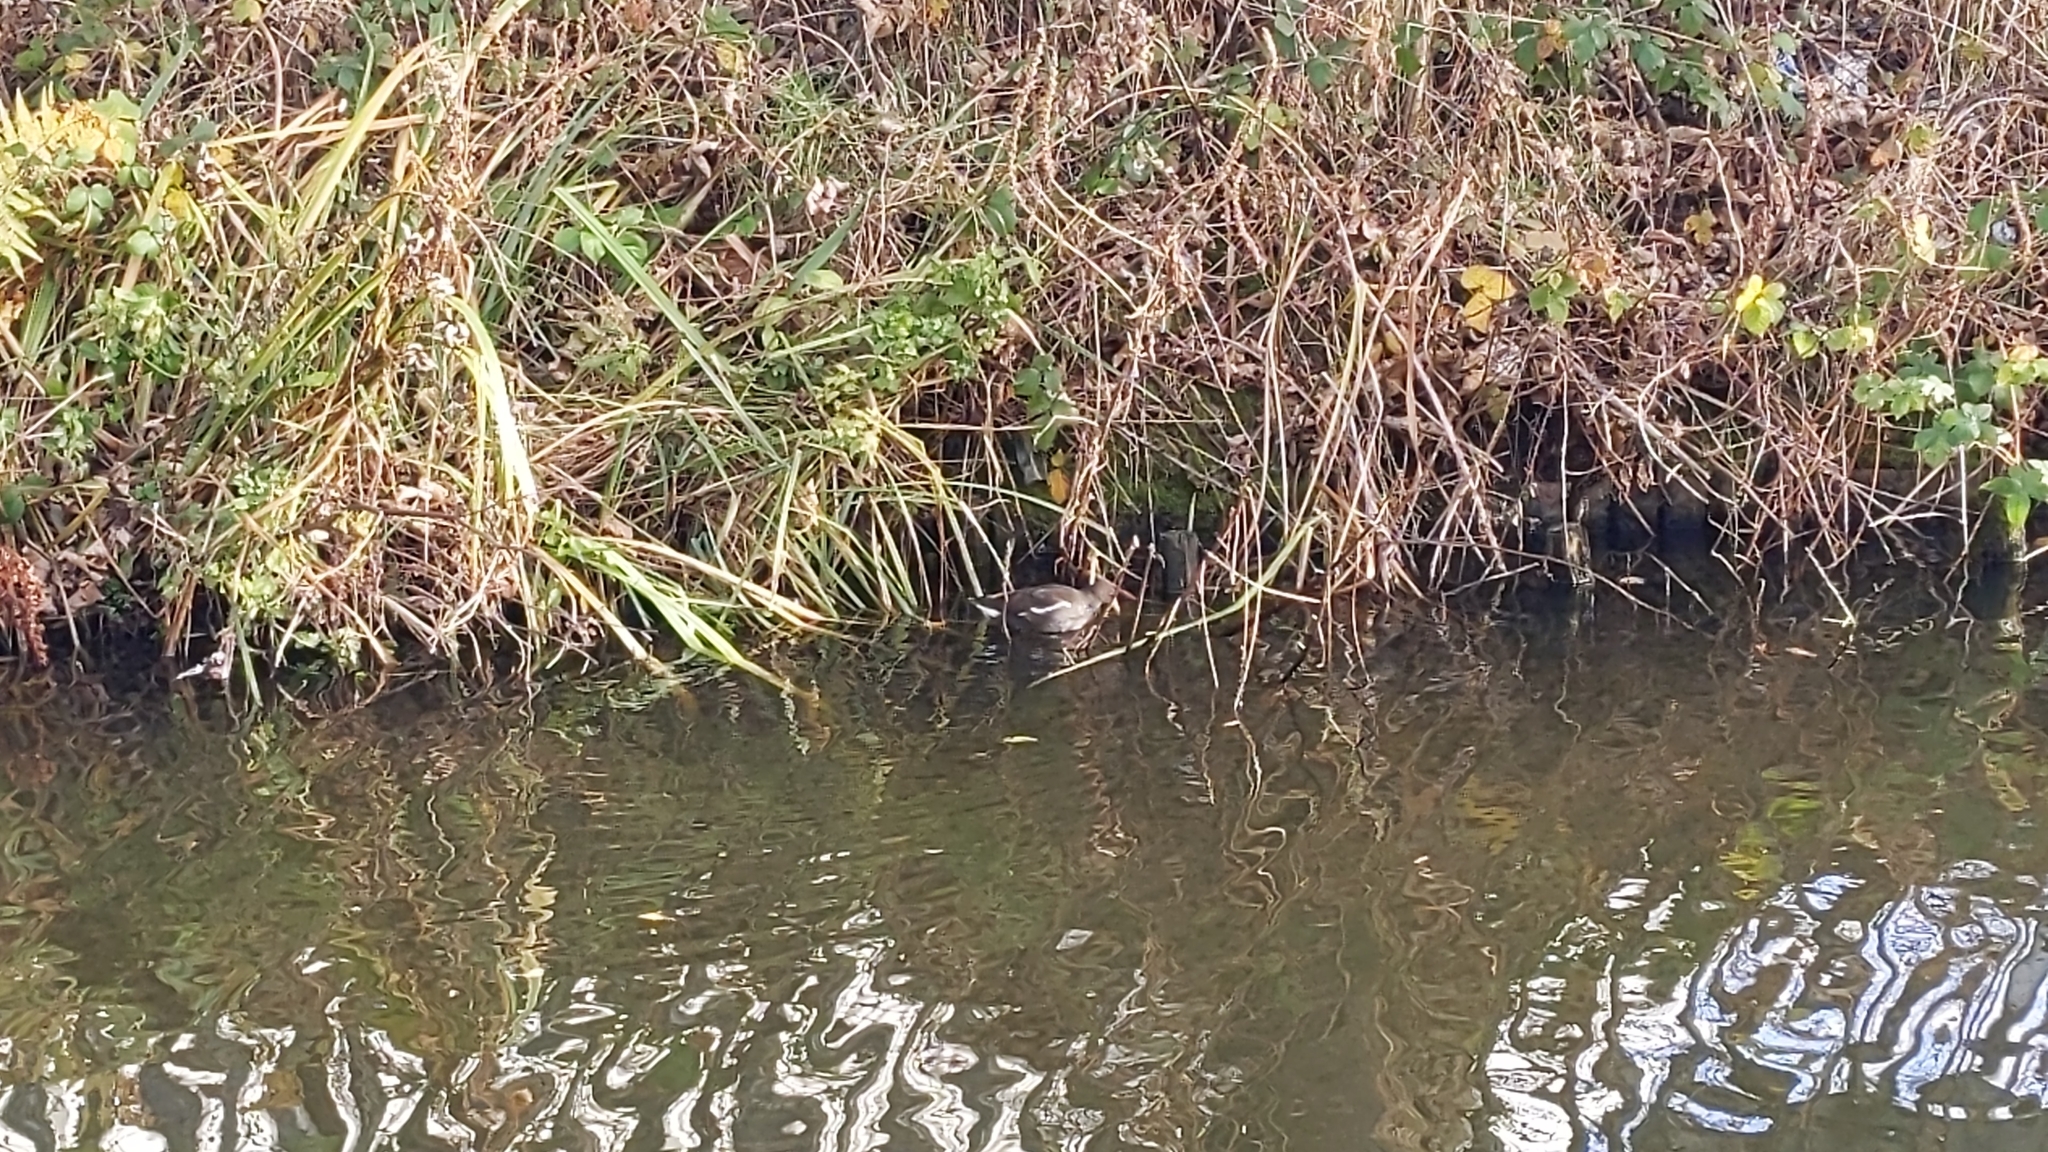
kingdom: Animalia
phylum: Chordata
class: Aves
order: Gruiformes
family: Rallidae
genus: Gallinula
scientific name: Gallinula chloropus
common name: Common moorhen
